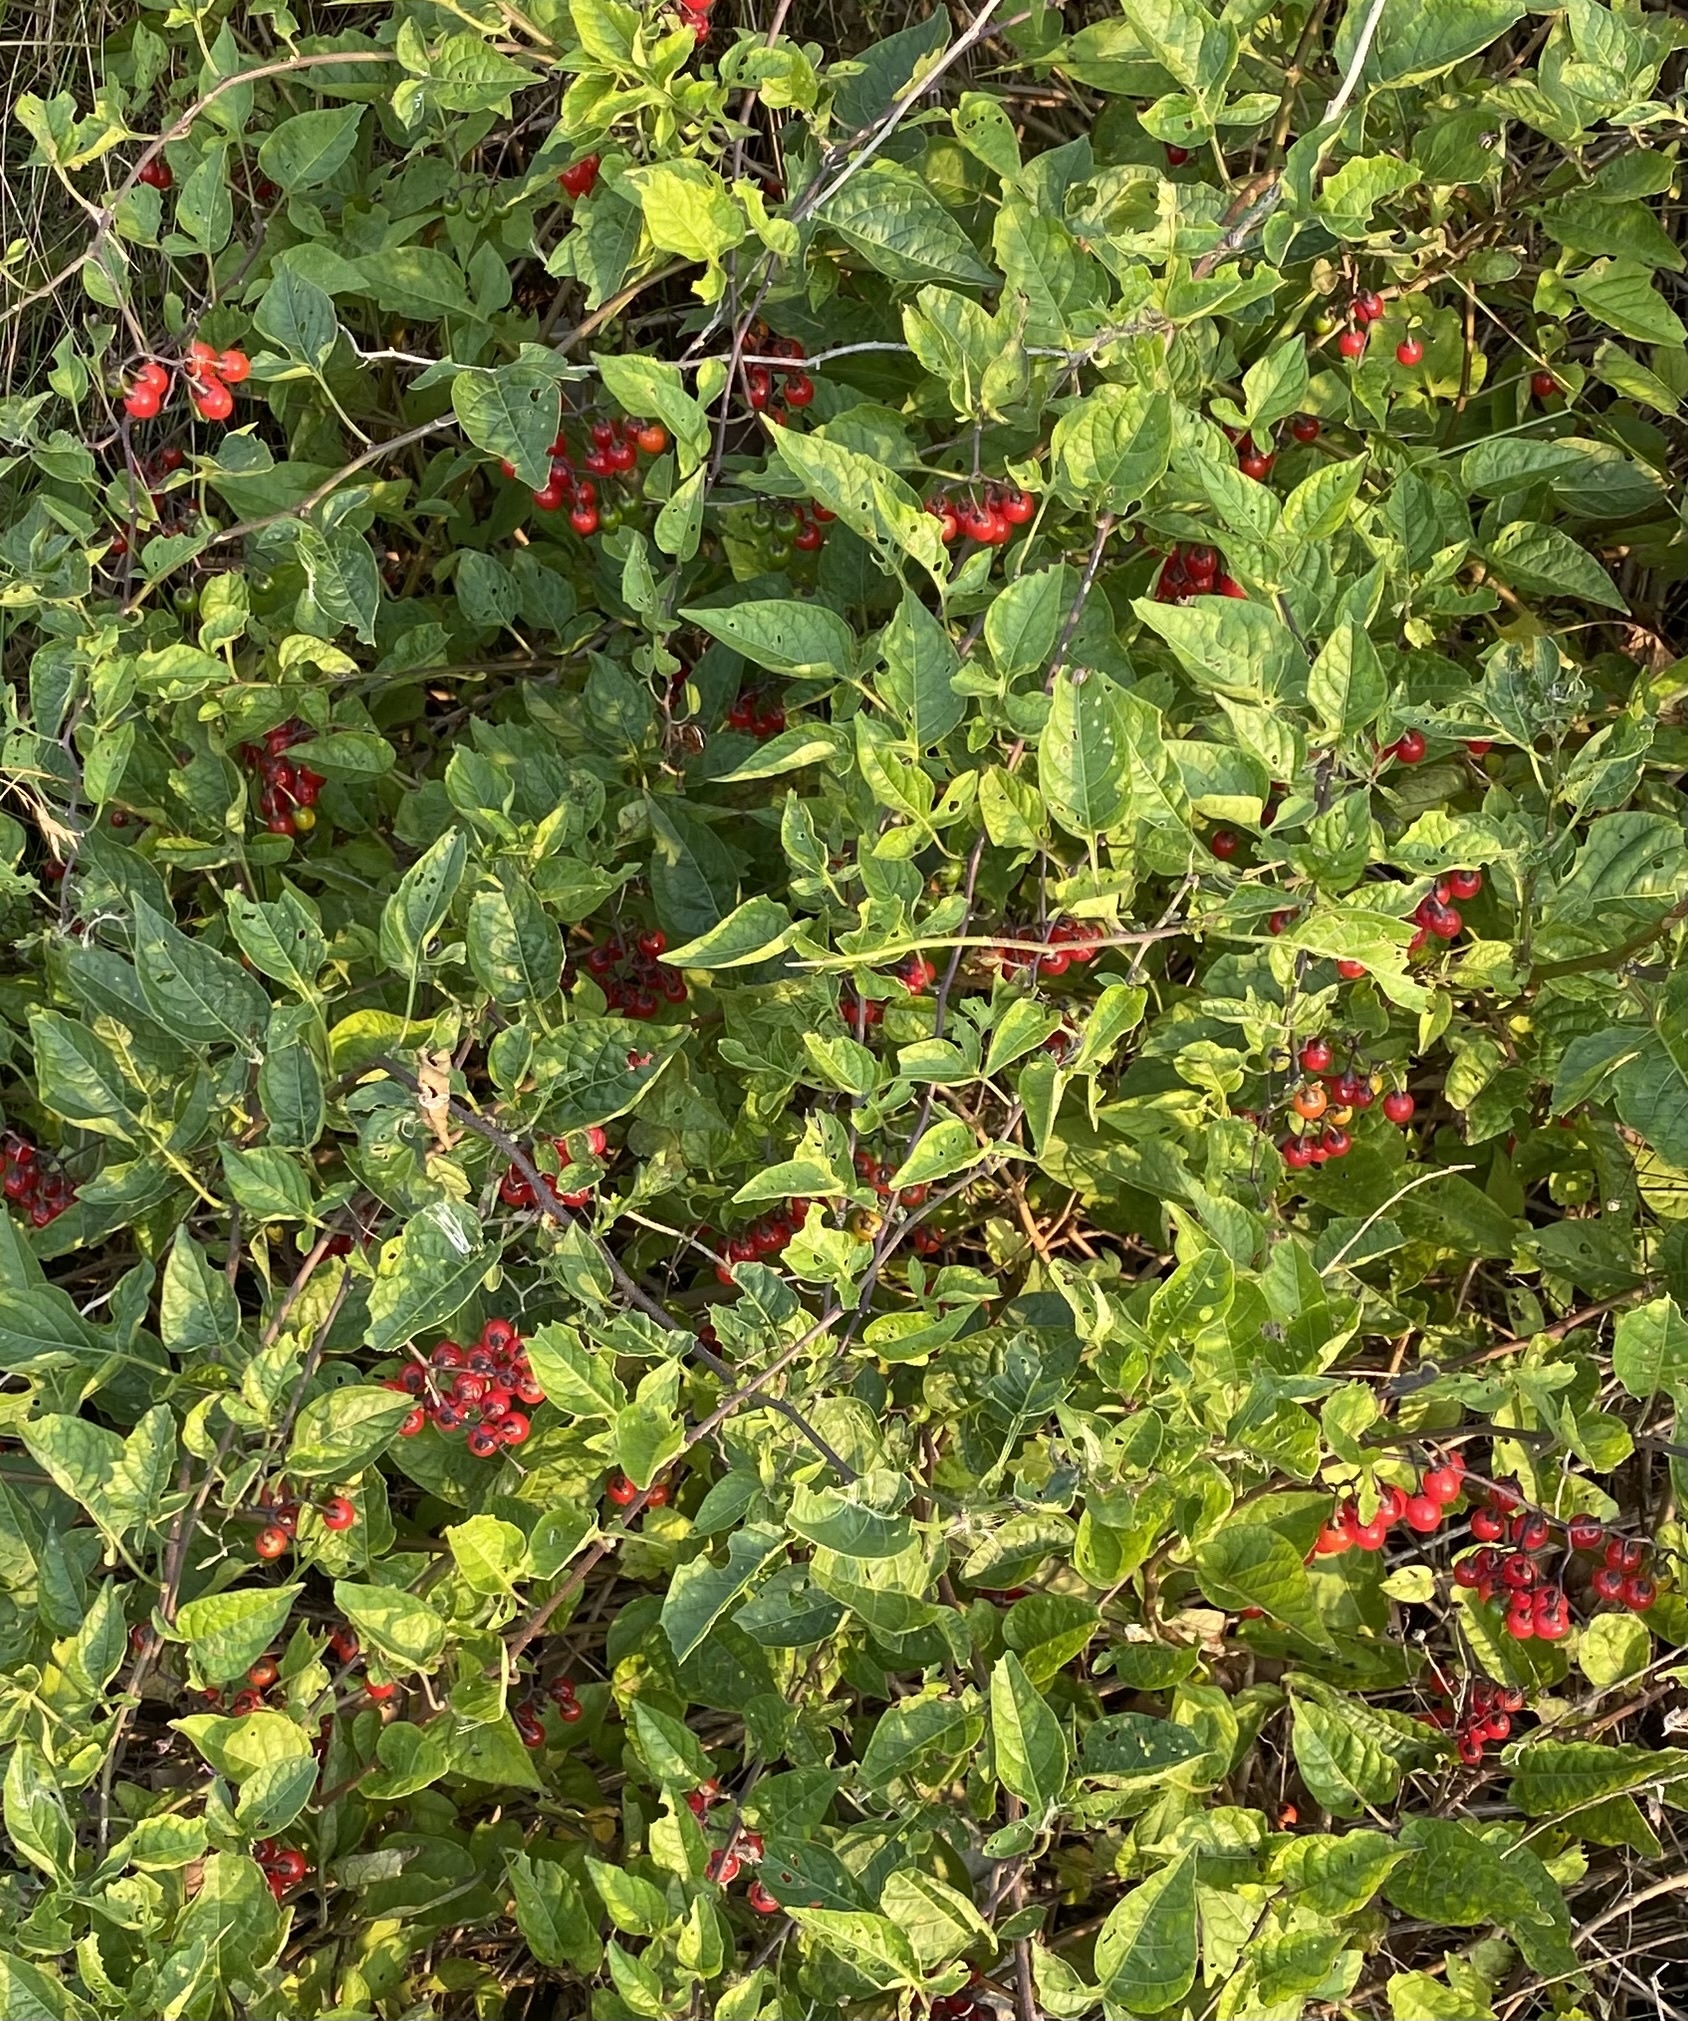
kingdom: Plantae
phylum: Tracheophyta
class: Magnoliopsida
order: Solanales
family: Solanaceae
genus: Solanum
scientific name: Solanum dulcamara
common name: Climbing nightshade
